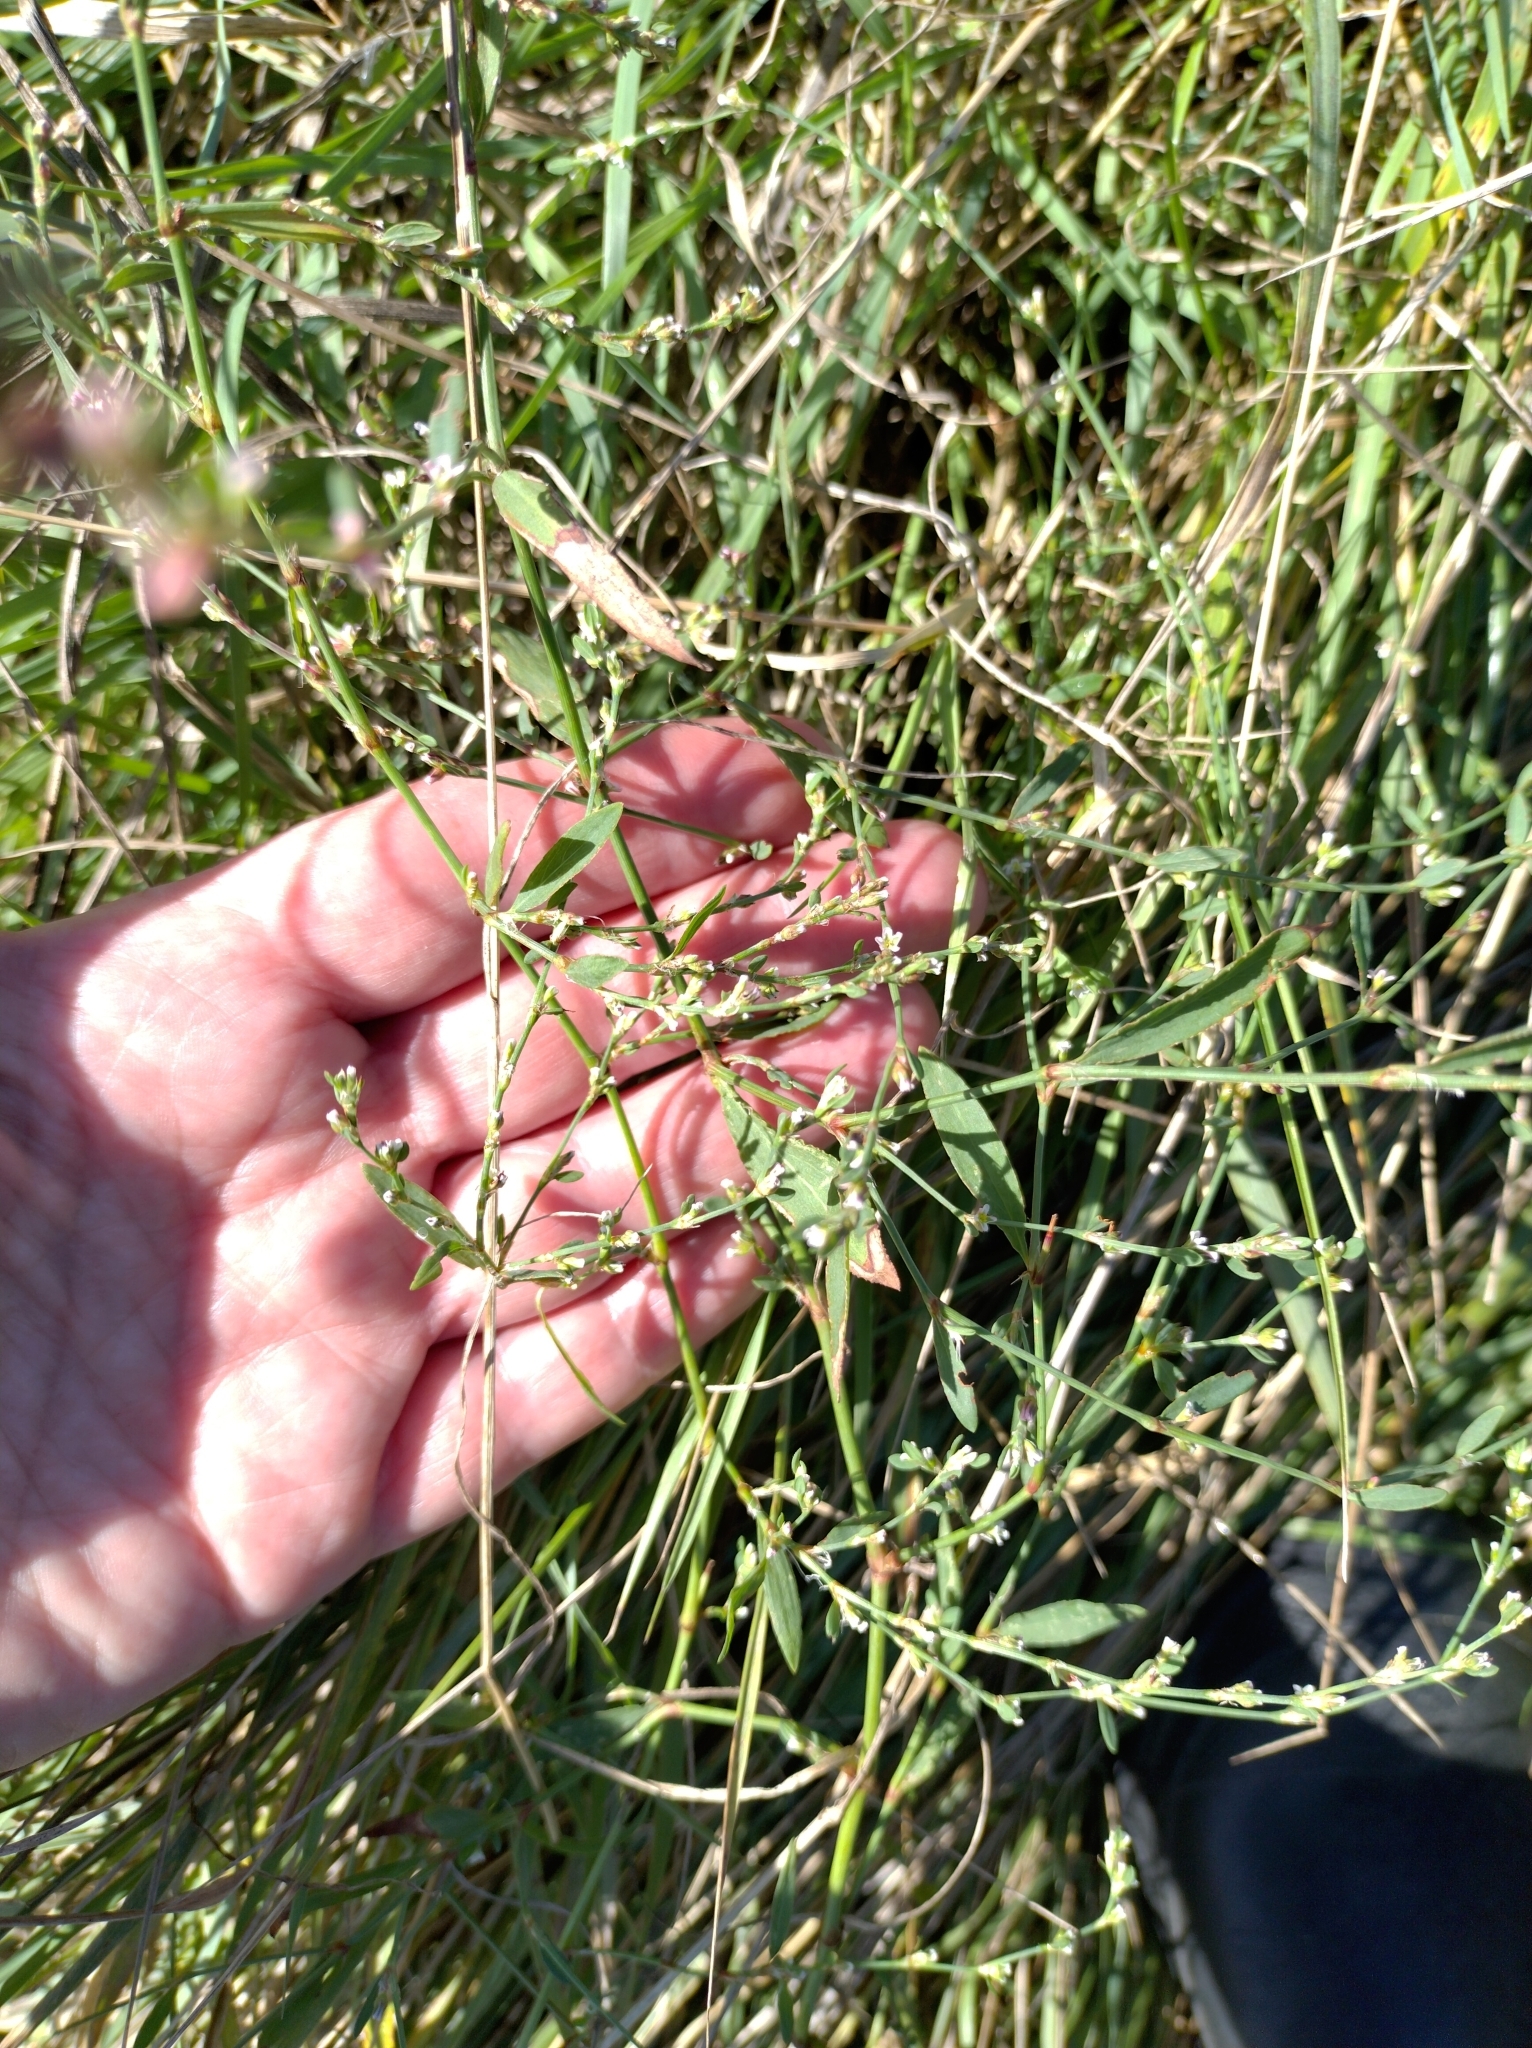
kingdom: Plantae
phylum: Tracheophyta
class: Magnoliopsida
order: Caryophyllales
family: Polygonaceae
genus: Polygonum
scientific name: Polygonum aviculare
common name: Prostrate knotweed
